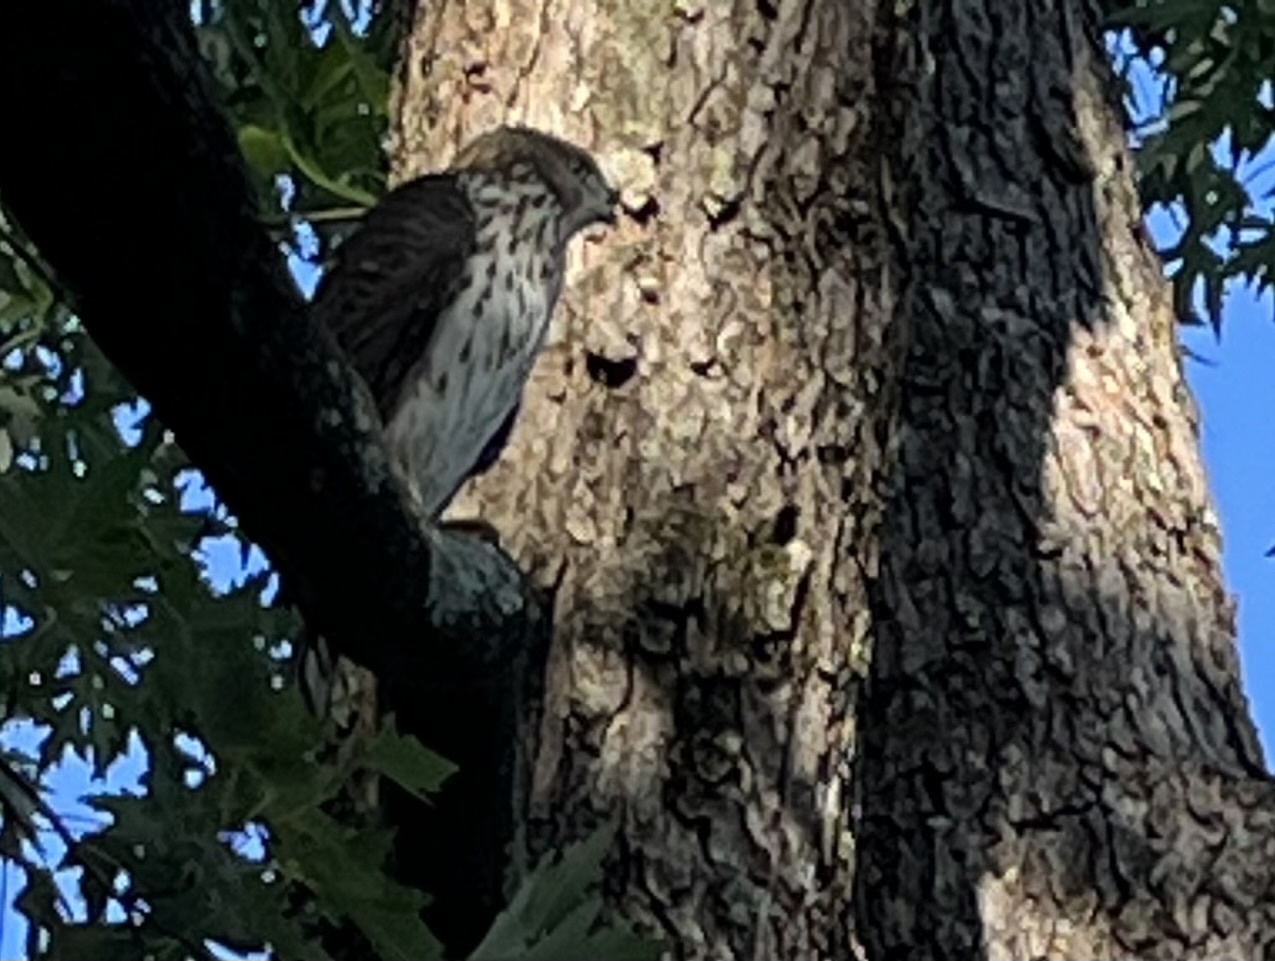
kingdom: Animalia
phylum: Chordata
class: Aves
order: Accipitriformes
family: Accipitridae
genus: Accipiter
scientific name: Accipiter cooperii
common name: Cooper's hawk
